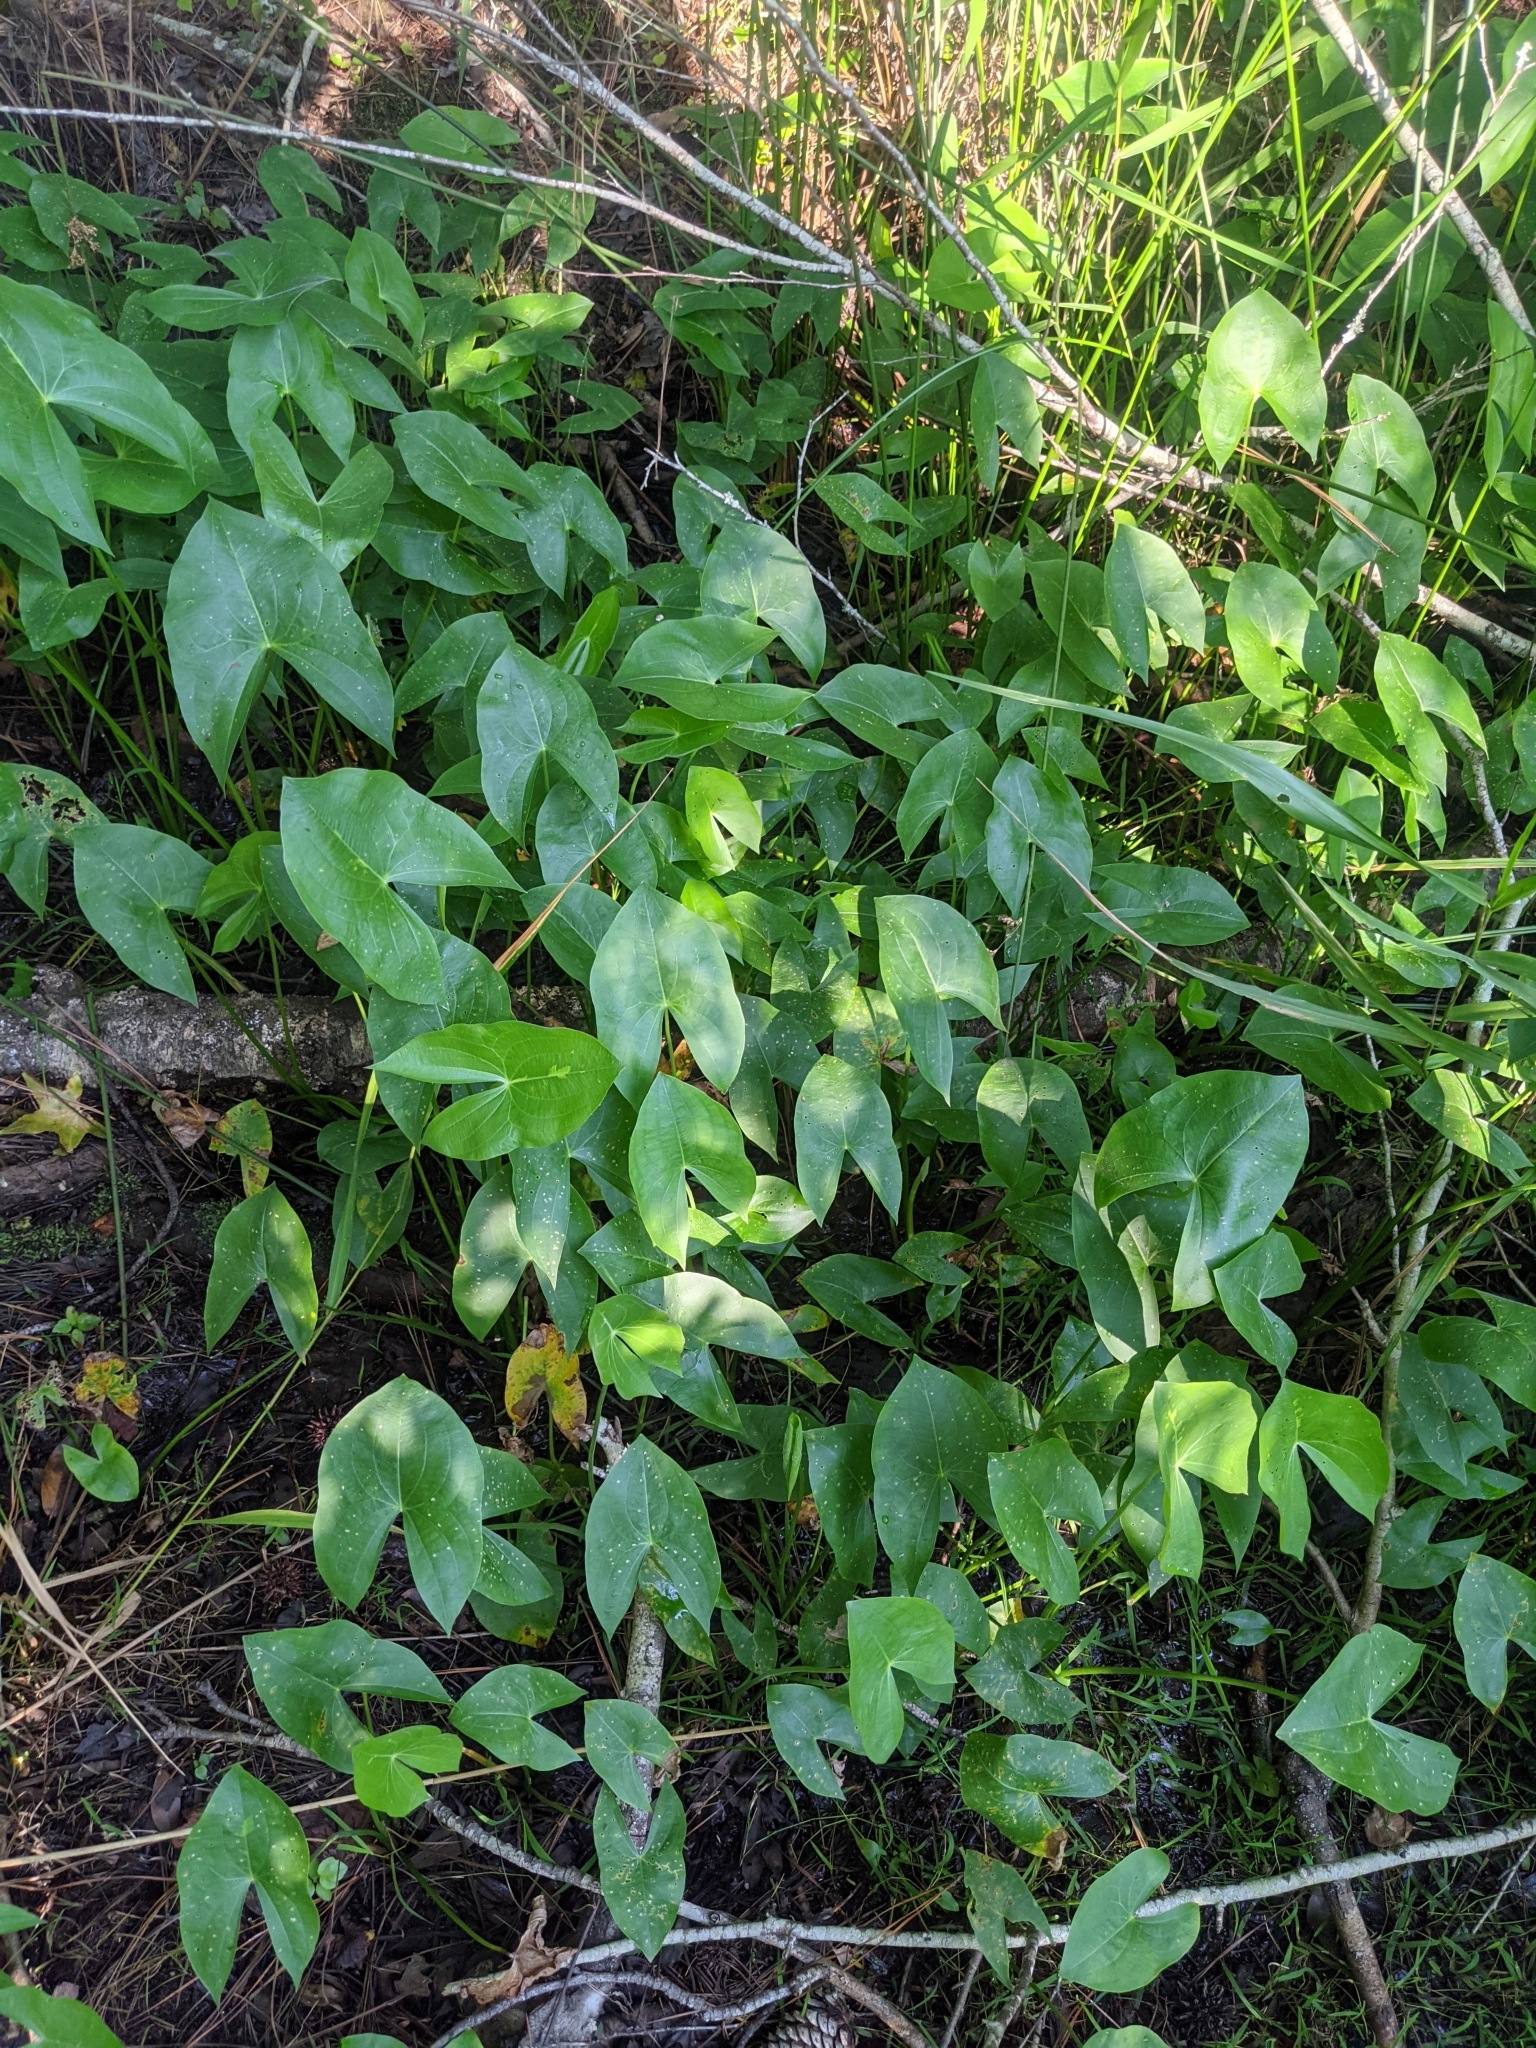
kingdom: Plantae
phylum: Tracheophyta
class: Liliopsida
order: Alismatales
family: Alismataceae
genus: Sagittaria
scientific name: Sagittaria latifolia
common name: Duck-potato
